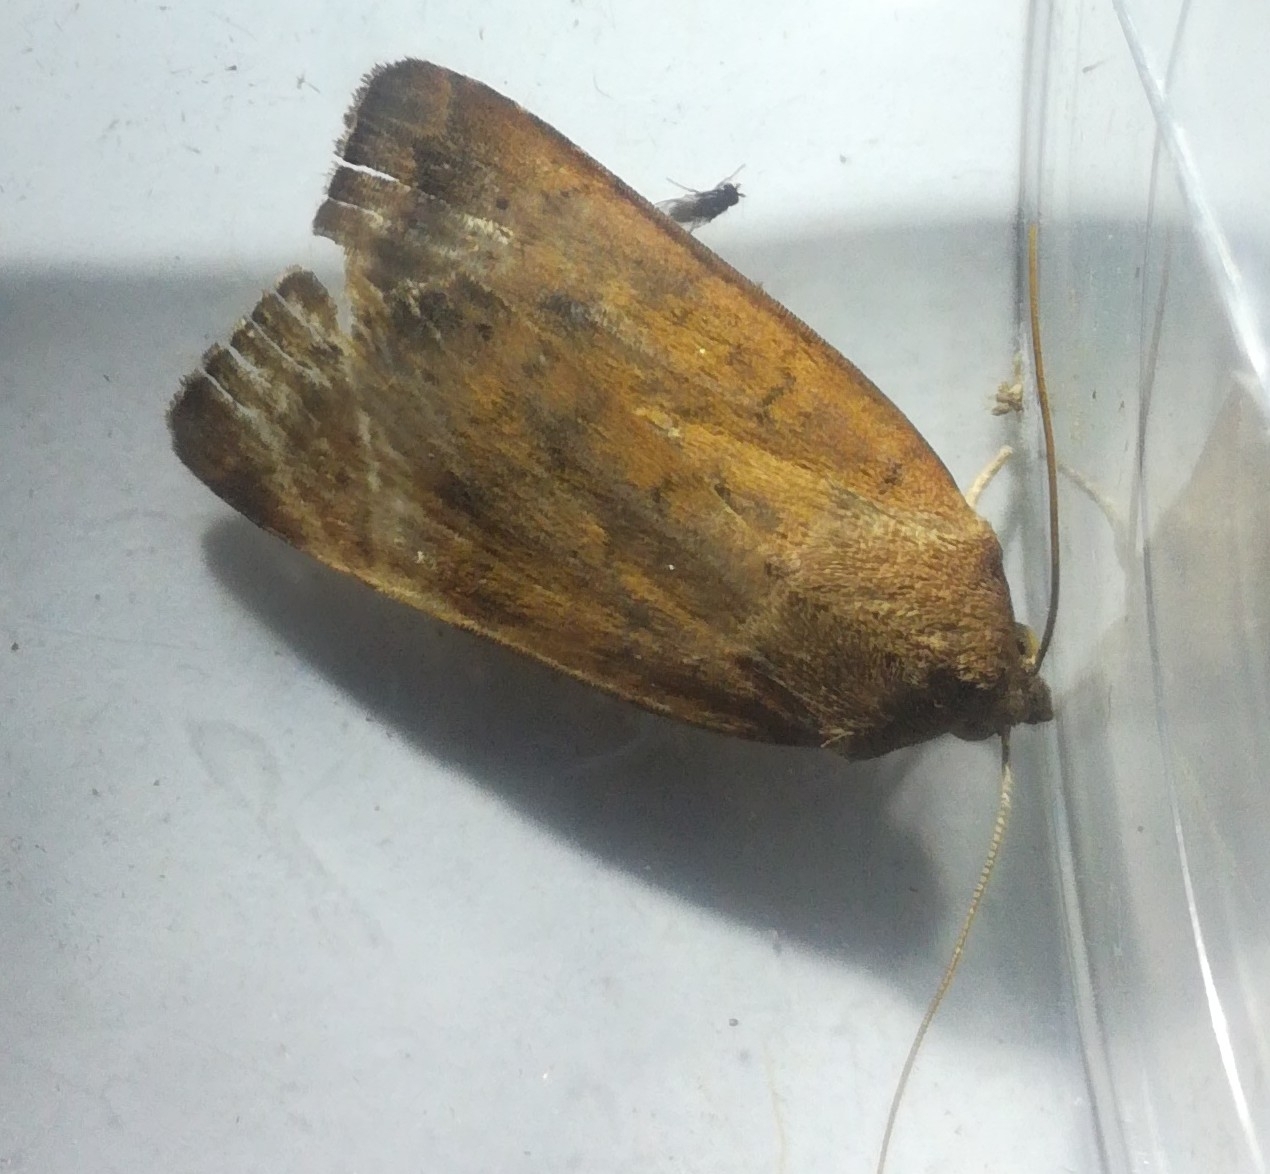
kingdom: Animalia
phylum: Arthropoda
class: Insecta
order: Lepidoptera
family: Noctuidae
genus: Noctua
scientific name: Noctua interjecta
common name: Least yellow underwing
